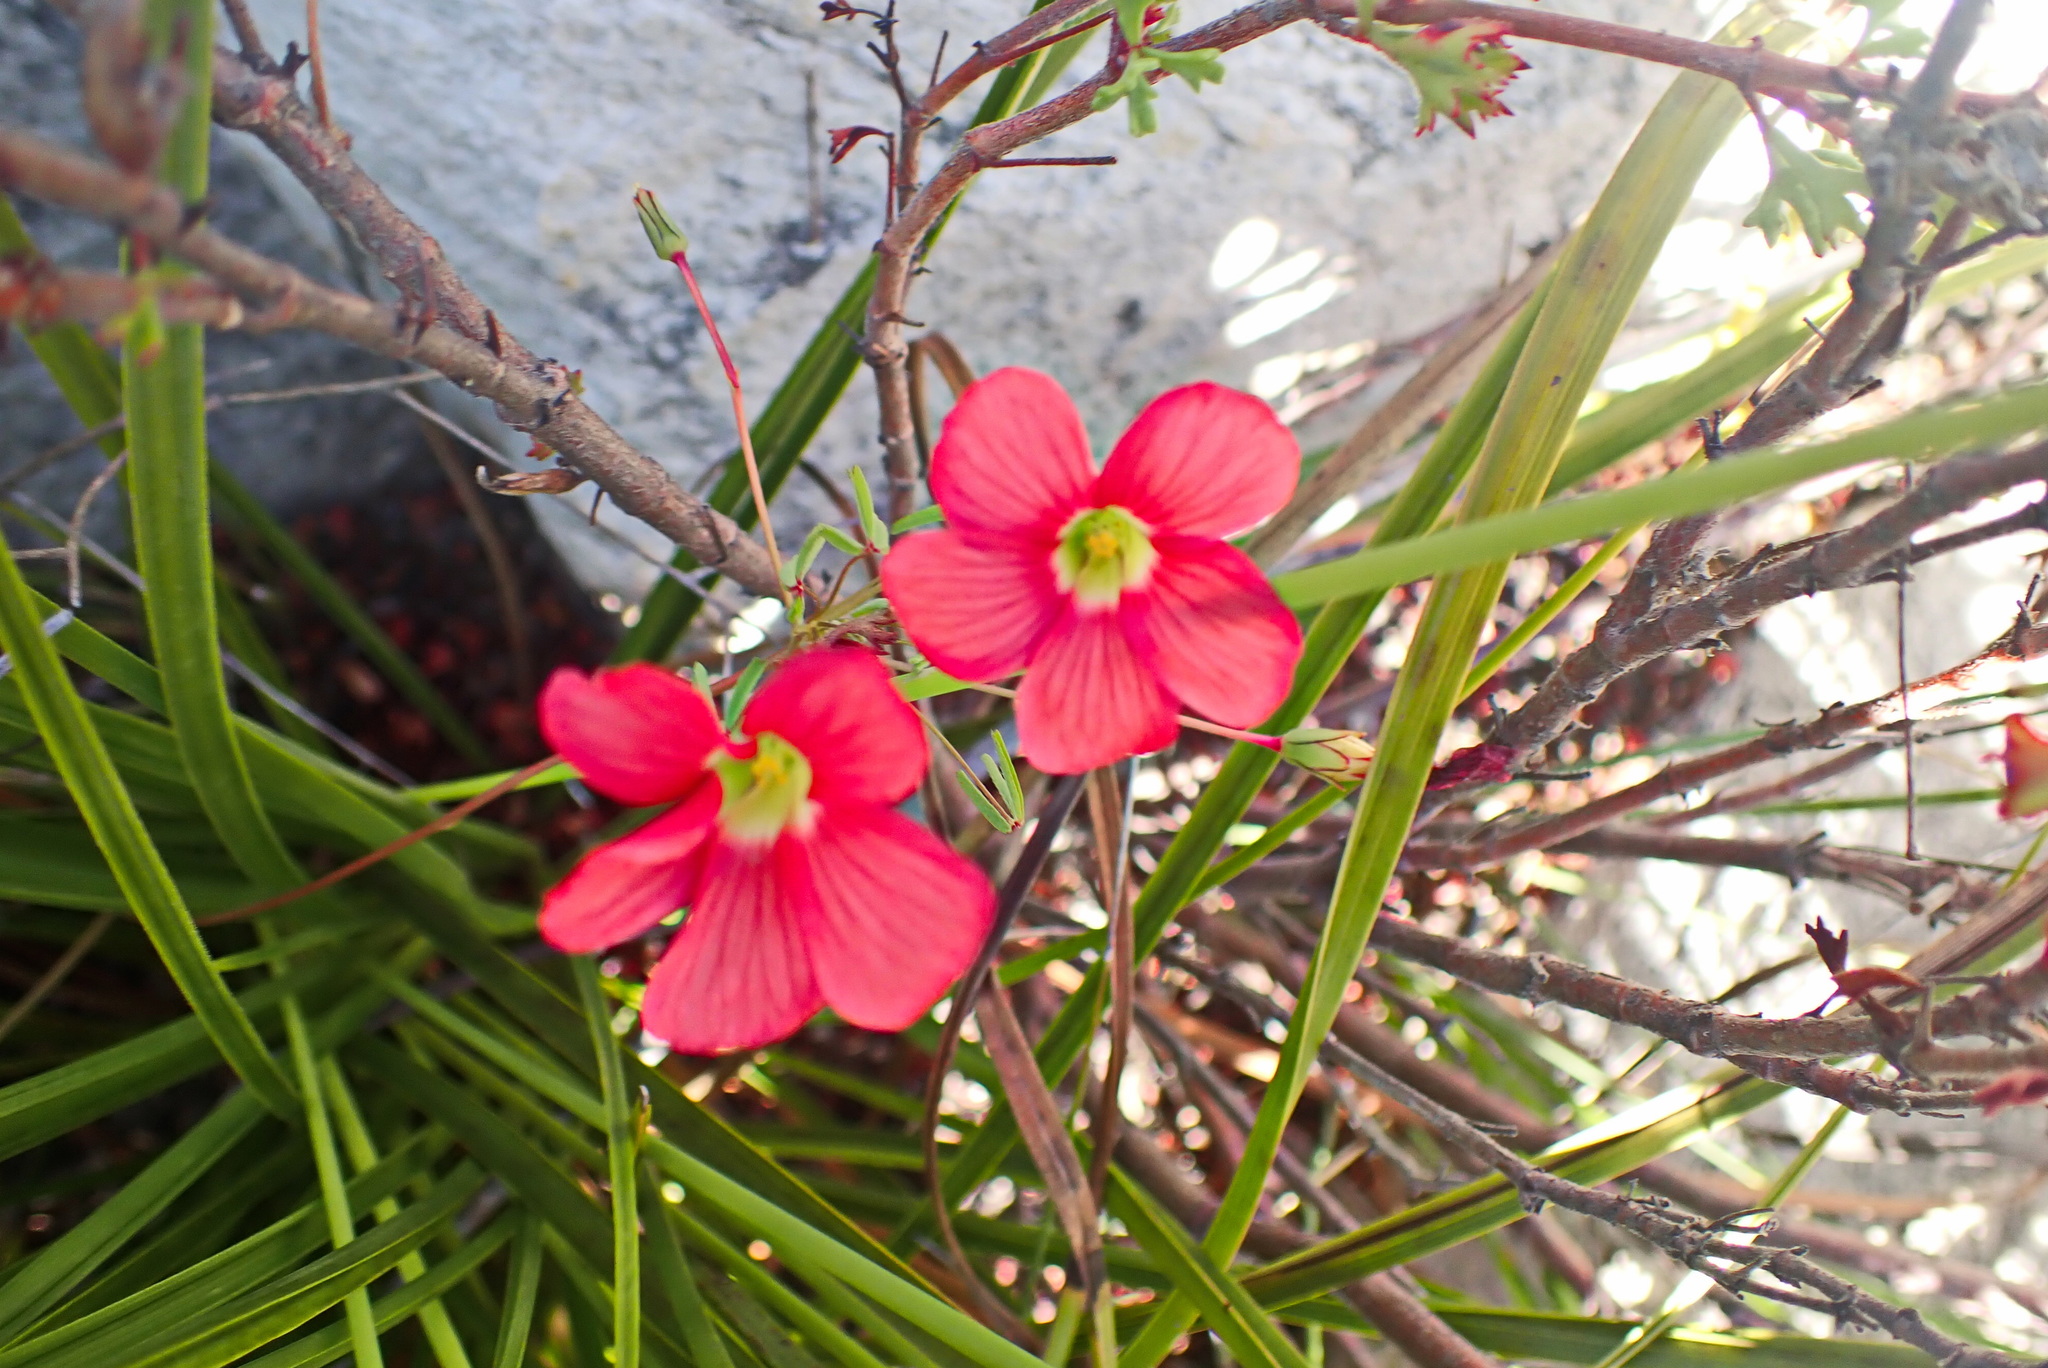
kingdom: Plantae
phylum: Tracheophyta
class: Magnoliopsida
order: Oxalidales
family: Oxalidaceae
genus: Oxalis
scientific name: Oxalis pendulifolia
